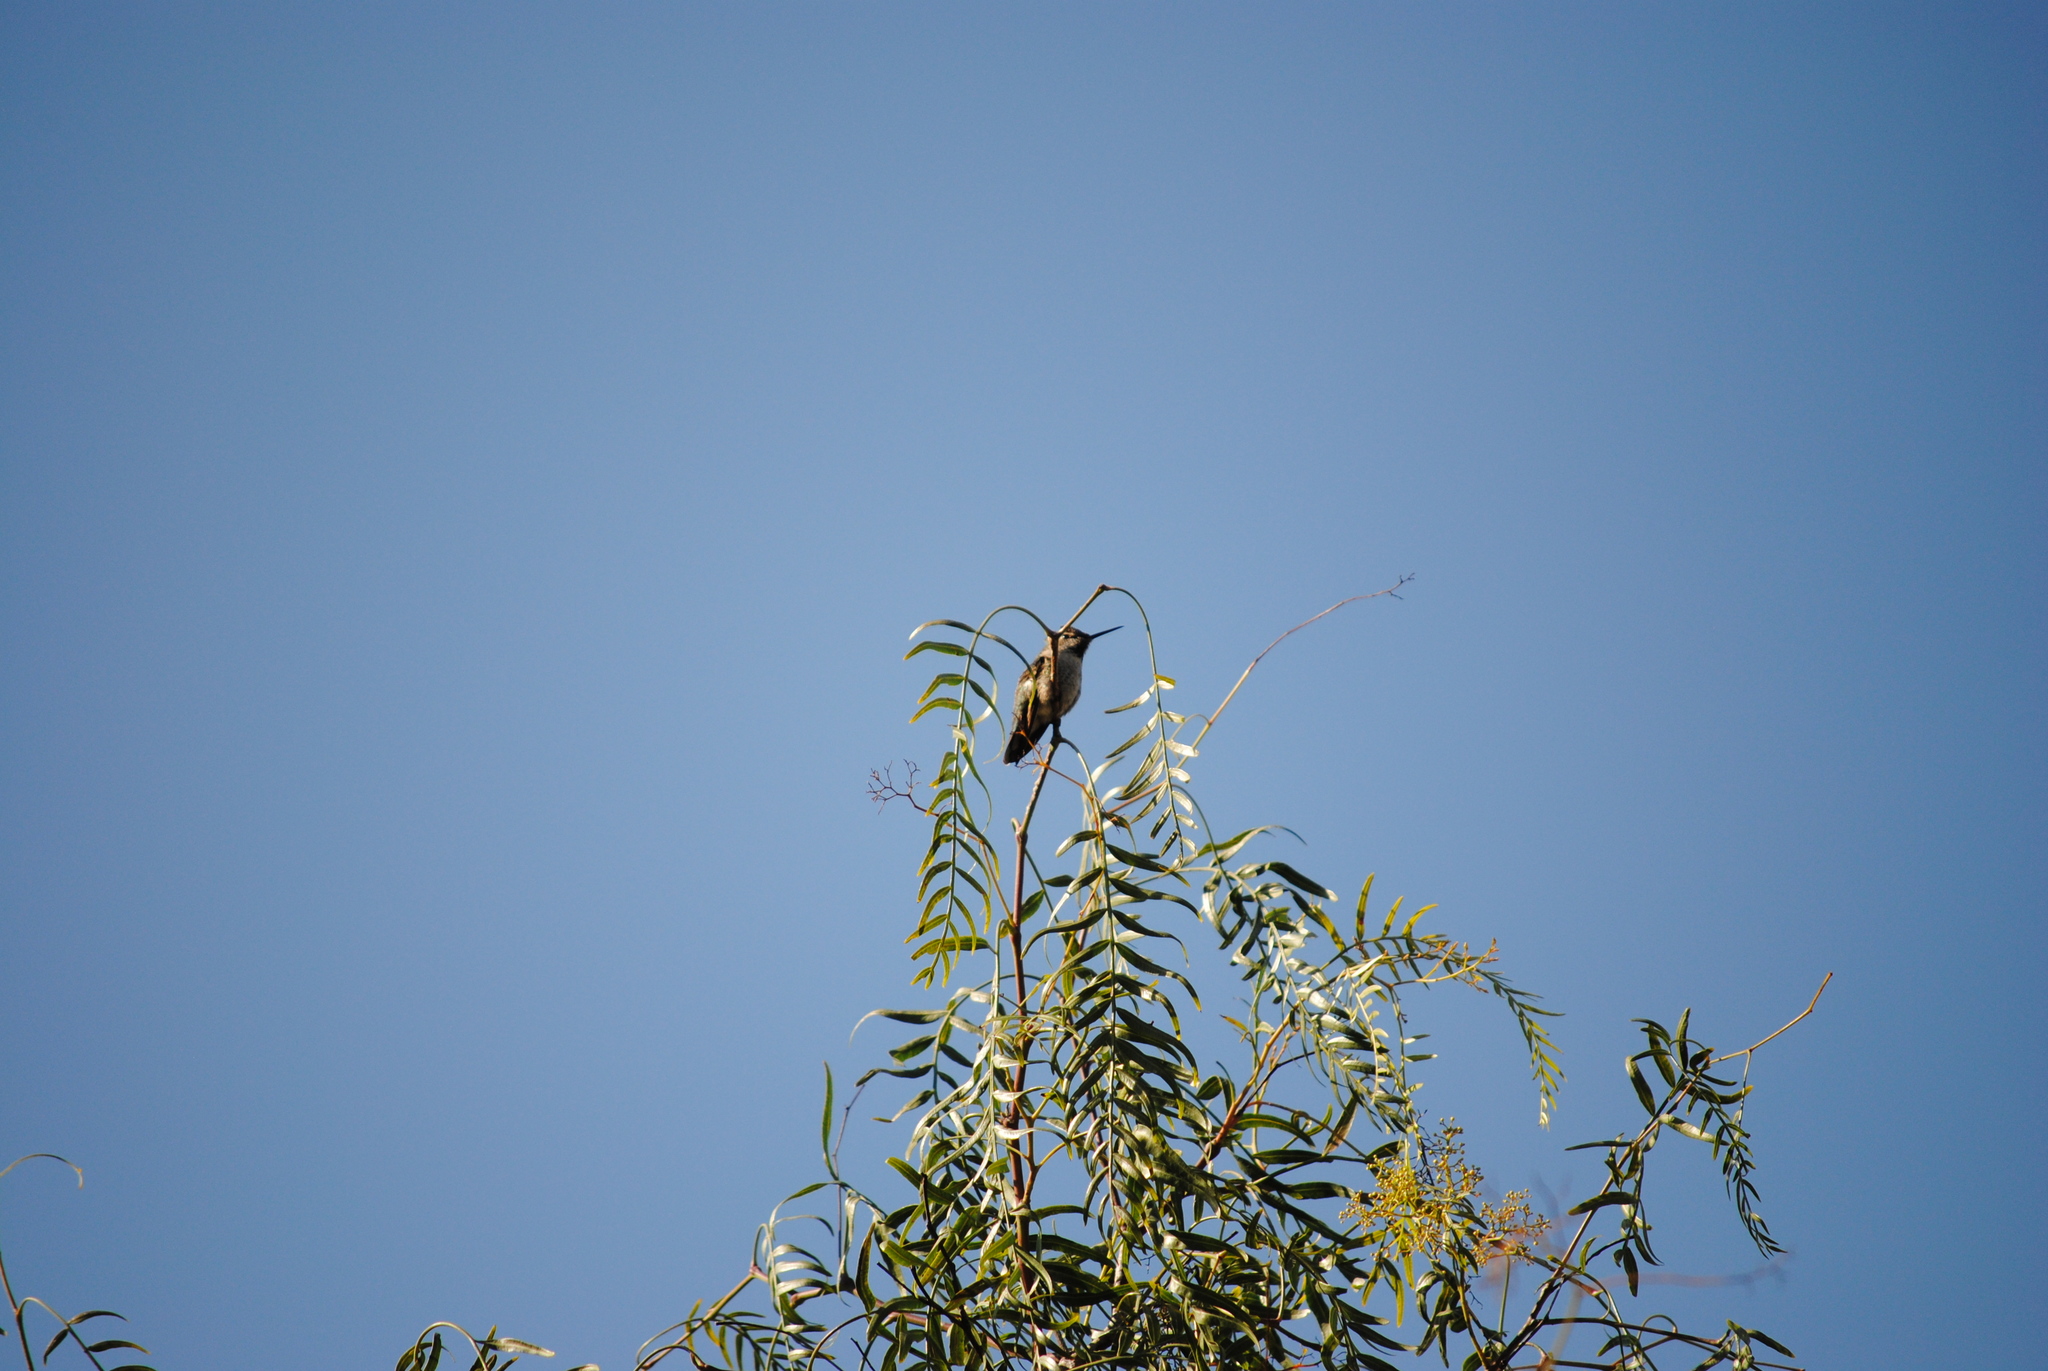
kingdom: Animalia
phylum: Chordata
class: Aves
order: Apodiformes
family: Trochilidae
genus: Calypte
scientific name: Calypte anna
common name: Anna's hummingbird
